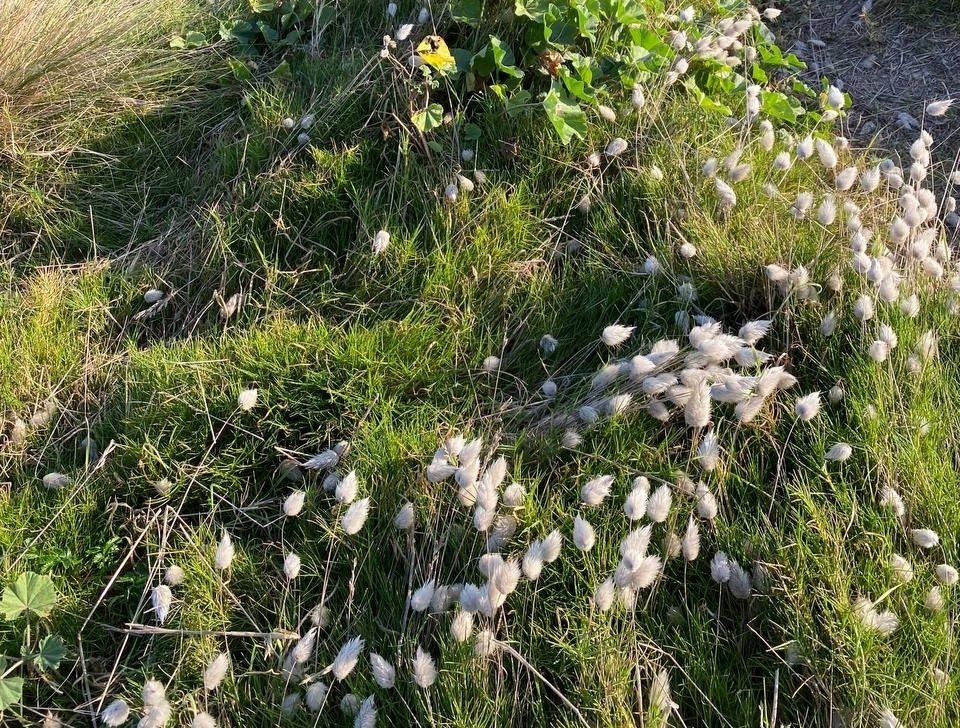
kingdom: Plantae
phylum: Tracheophyta
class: Liliopsida
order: Poales
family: Poaceae
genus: Lagurus
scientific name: Lagurus ovatus
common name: Hare's-tail
